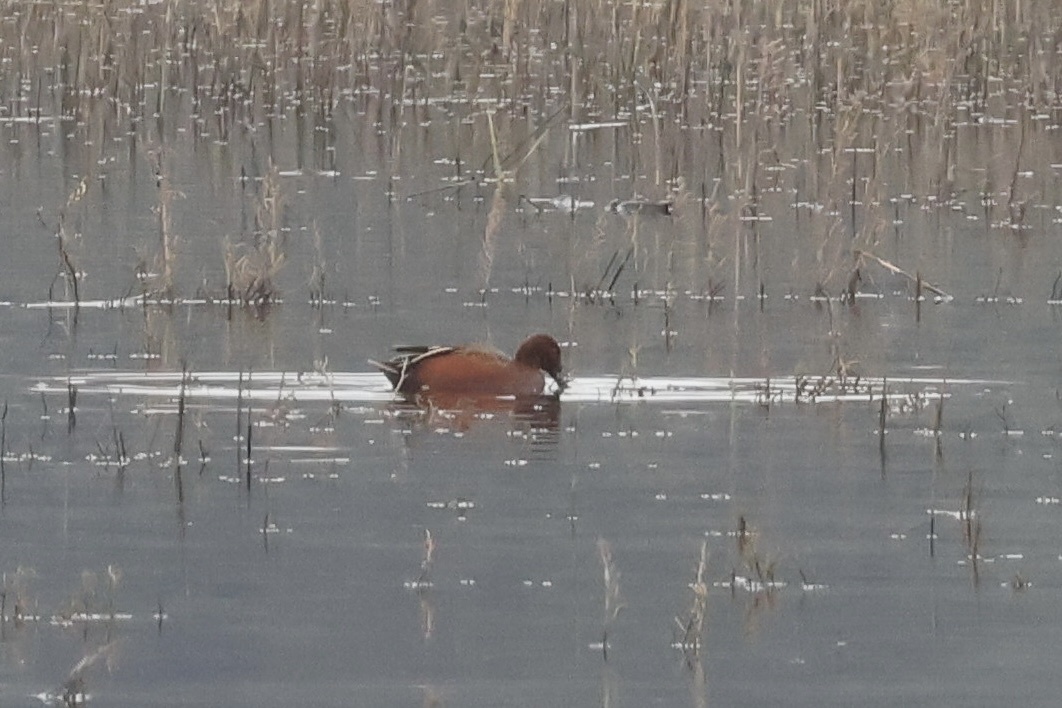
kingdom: Animalia
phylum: Chordata
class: Aves
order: Anseriformes
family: Anatidae
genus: Spatula
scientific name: Spatula cyanoptera
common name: Cinnamon teal
